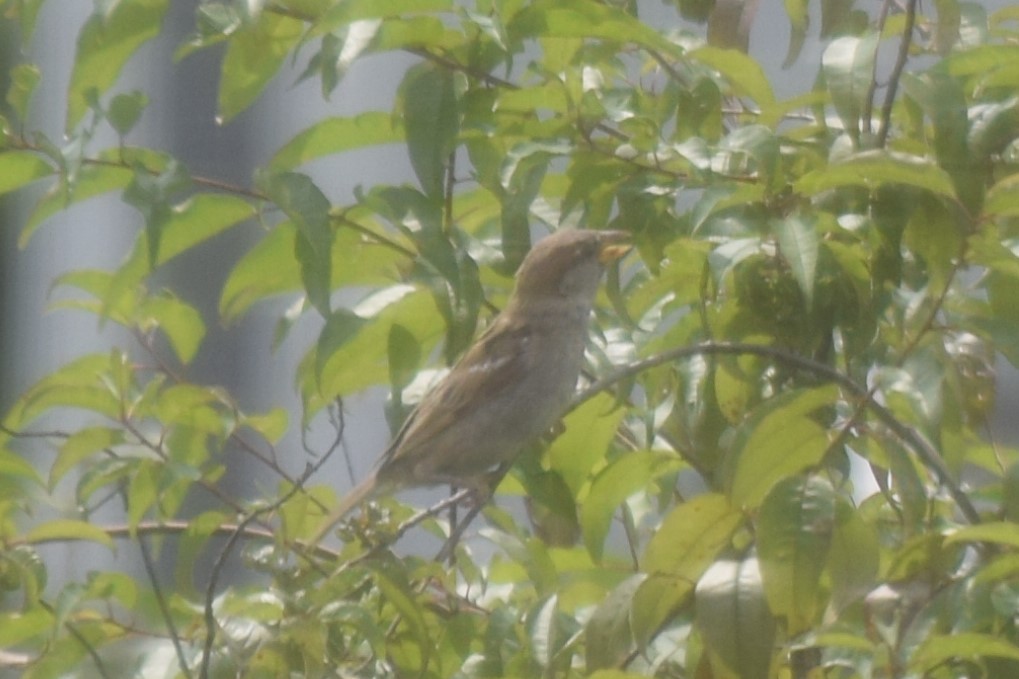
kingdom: Animalia
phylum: Chordata
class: Aves
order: Passeriformes
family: Passeridae
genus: Passer
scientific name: Passer domesticus
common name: House sparrow
